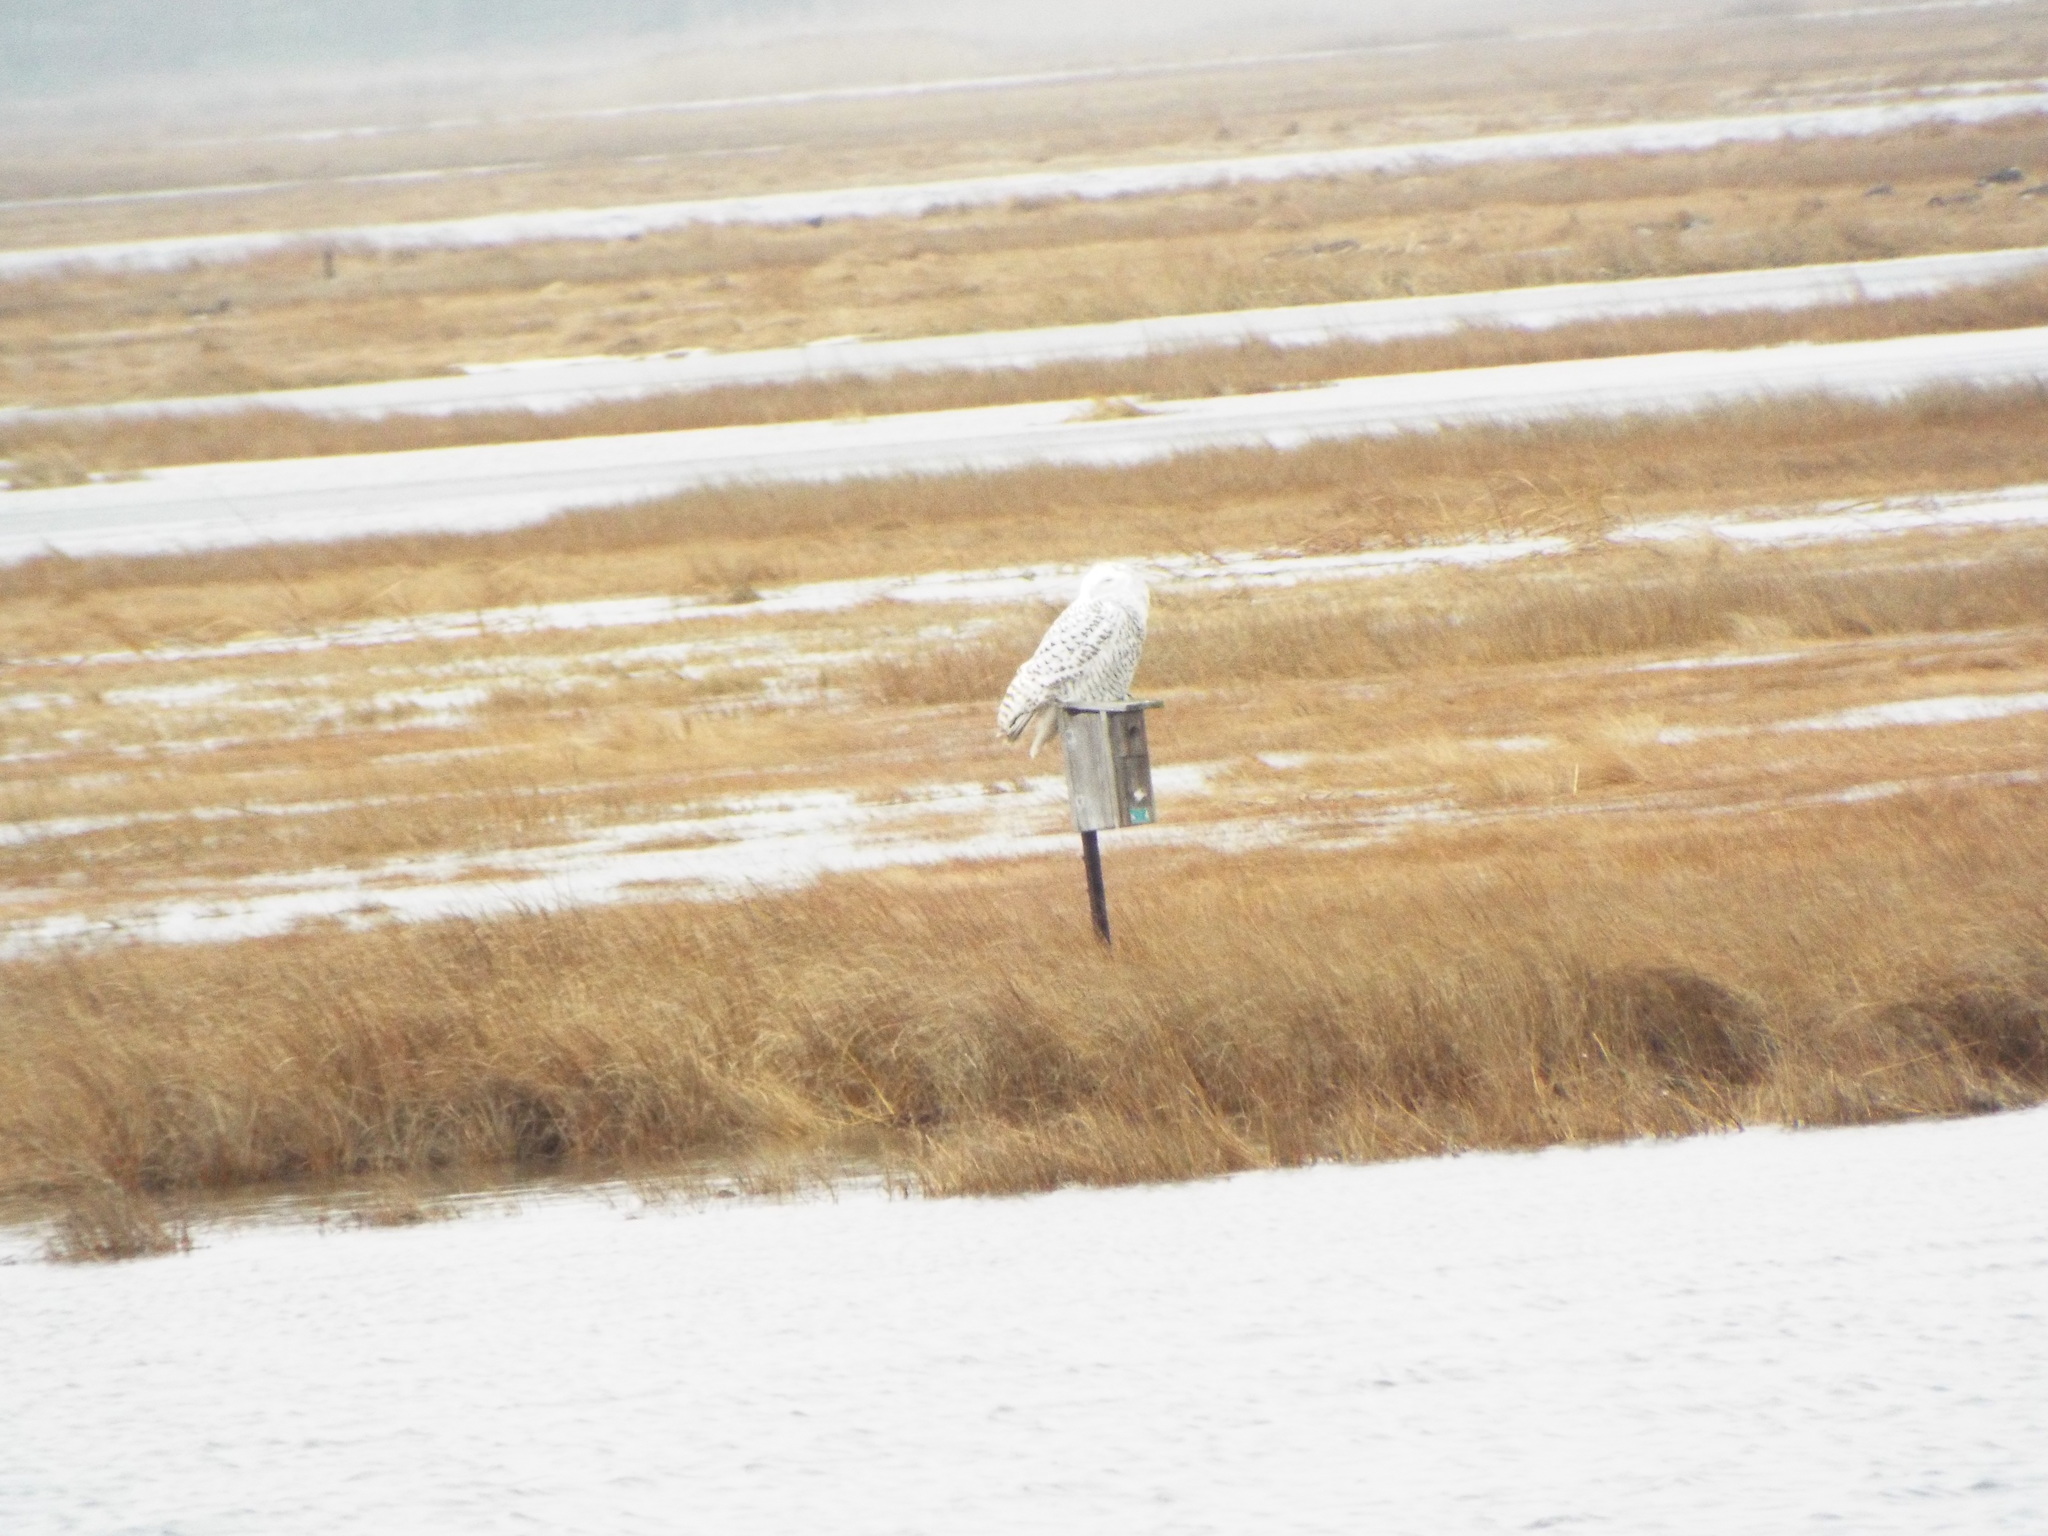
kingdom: Animalia
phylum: Chordata
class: Aves
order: Strigiformes
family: Strigidae
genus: Bubo
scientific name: Bubo scandiacus
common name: Snowy owl
